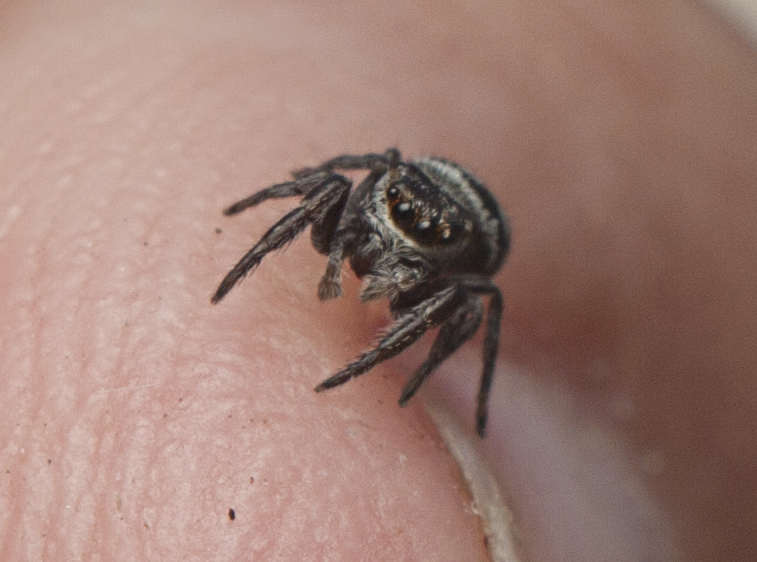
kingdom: Animalia
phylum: Arthropoda
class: Arachnida
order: Araneae
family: Salticidae
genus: Bianor
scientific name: Bianor maculatus
